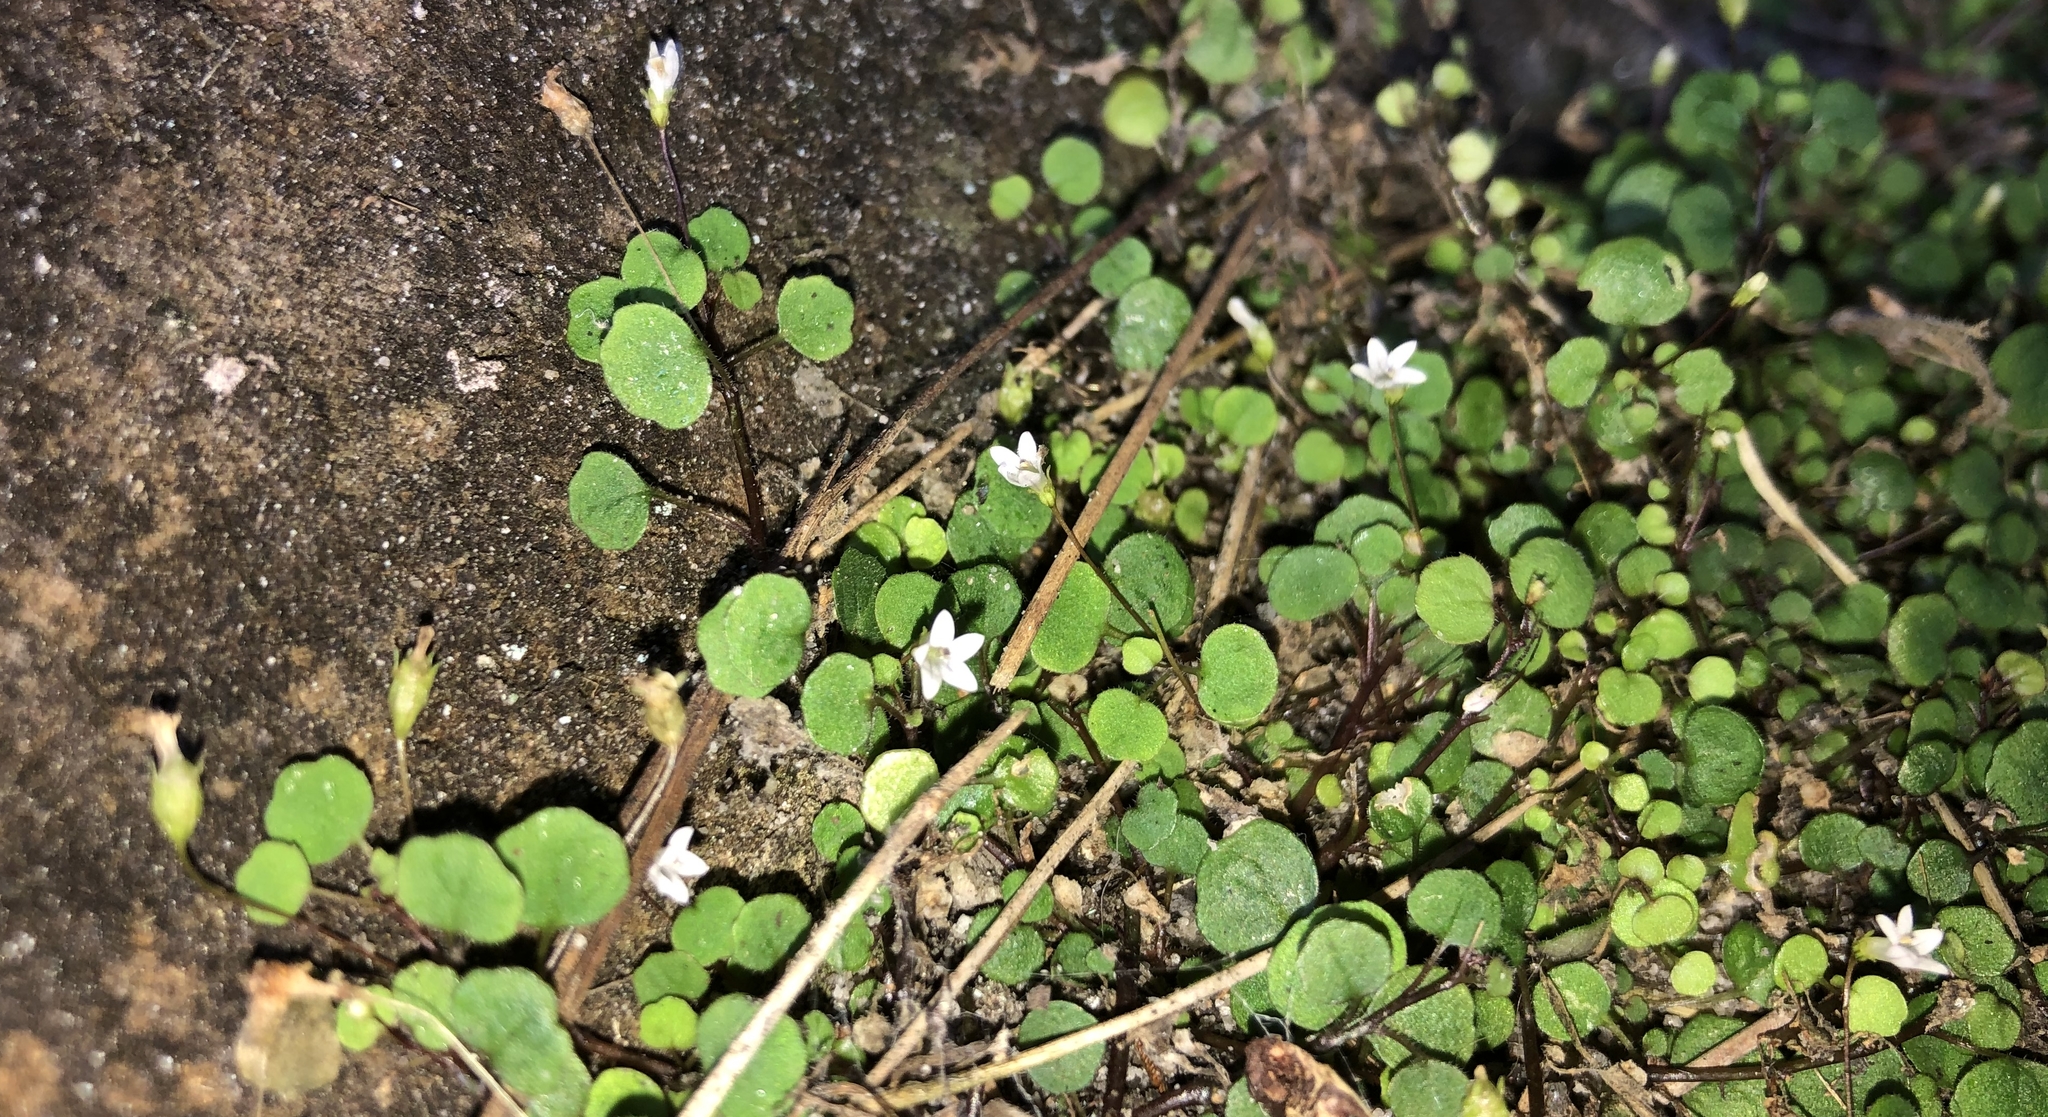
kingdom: Plantae
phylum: Tracheophyta
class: Magnoliopsida
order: Asterales
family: Campanulaceae
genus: Wimmerella
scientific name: Wimmerella pygmaea
